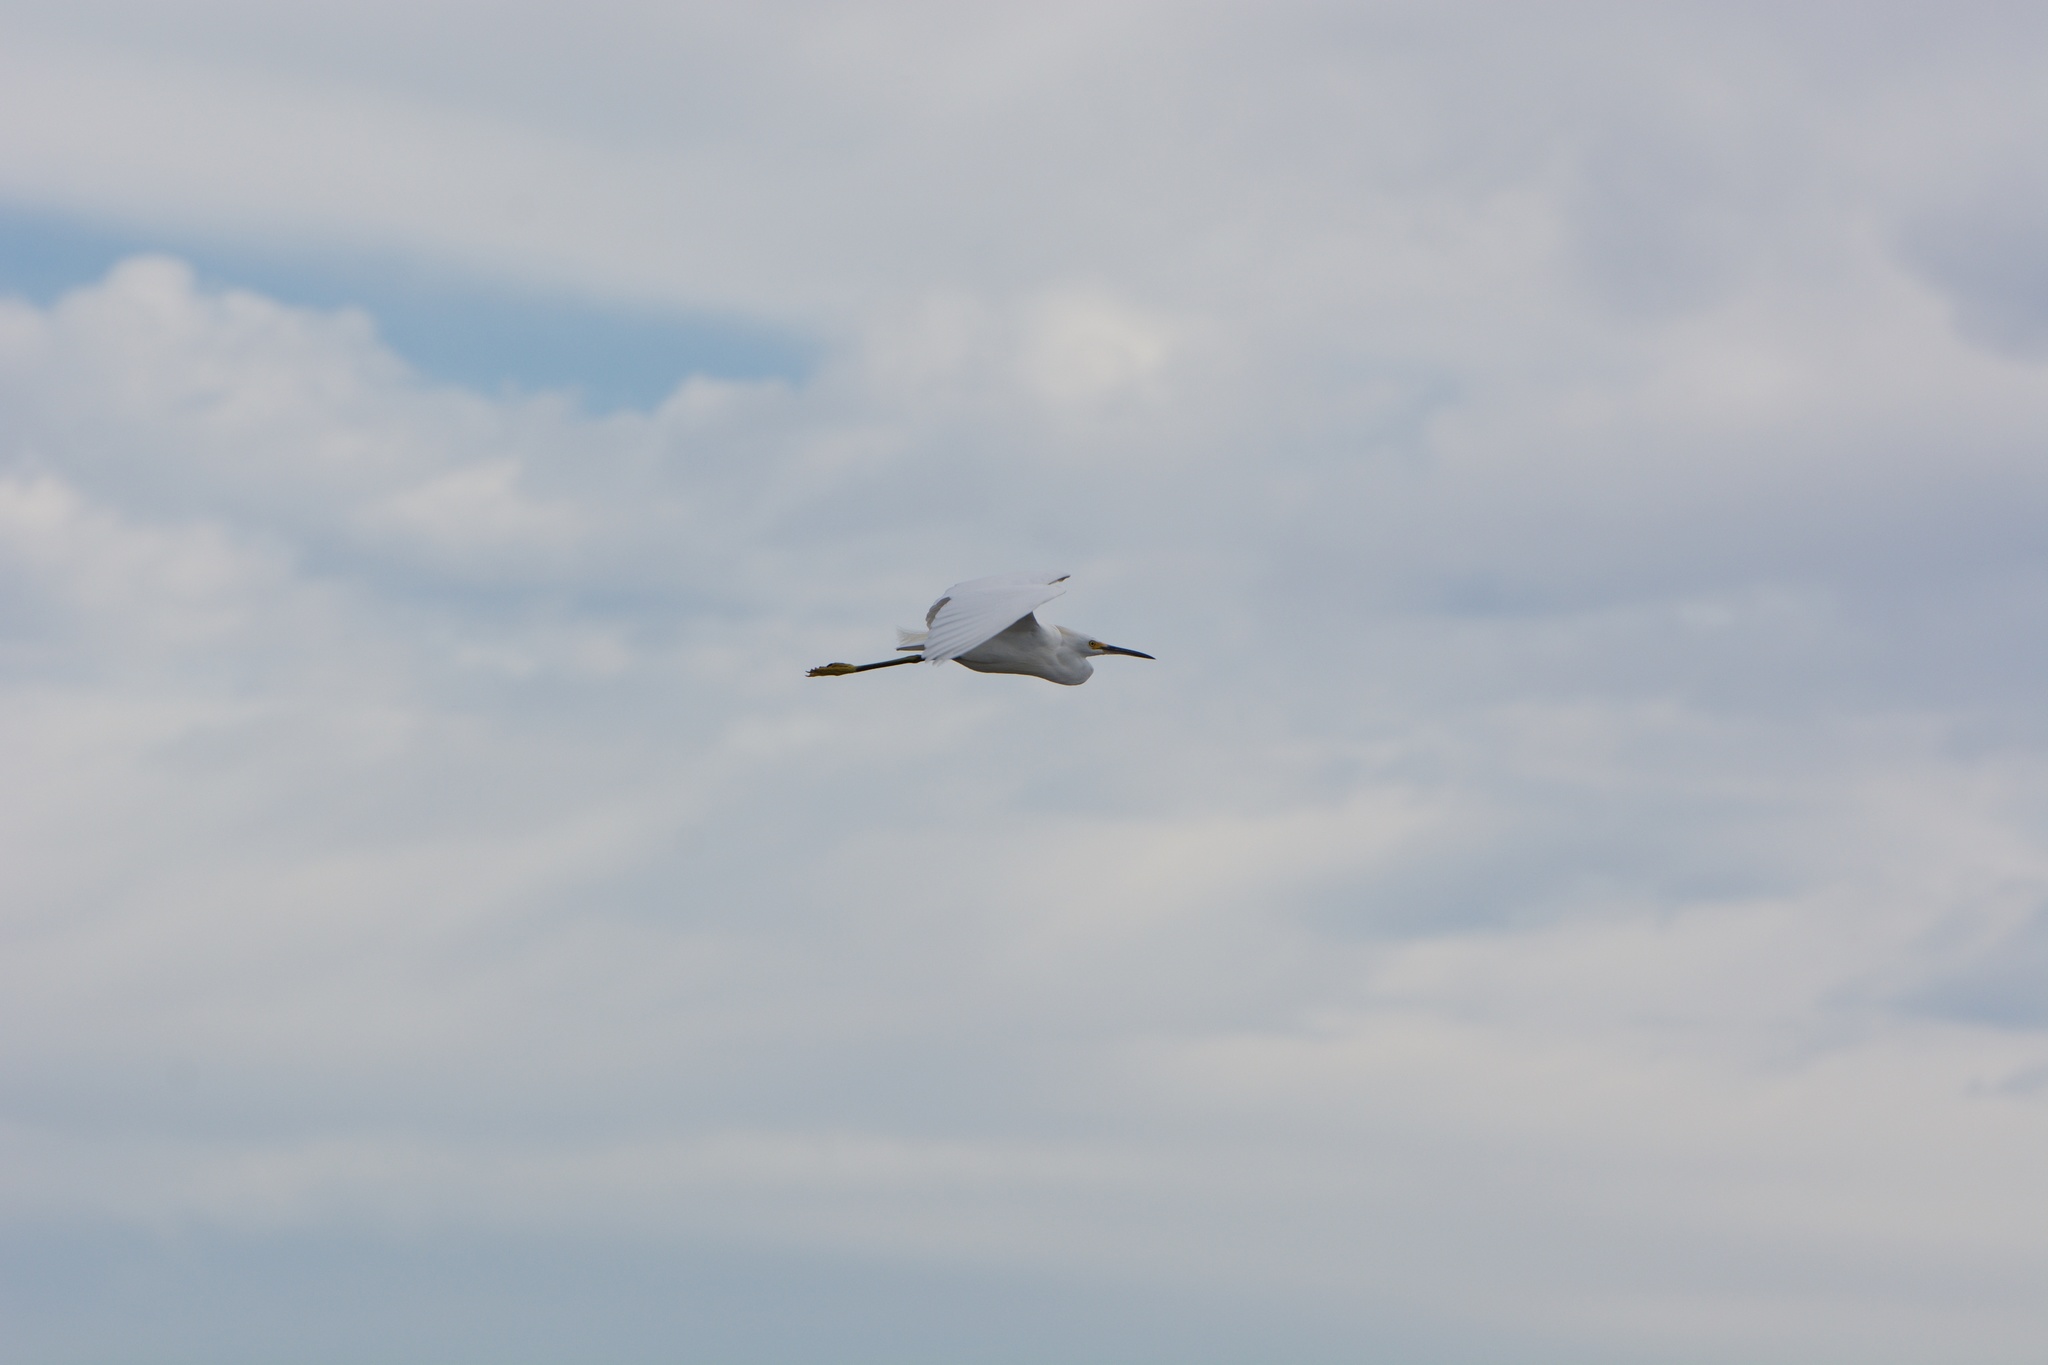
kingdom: Animalia
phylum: Chordata
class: Aves
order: Pelecaniformes
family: Ardeidae
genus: Egretta
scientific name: Egretta thula
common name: Snowy egret
